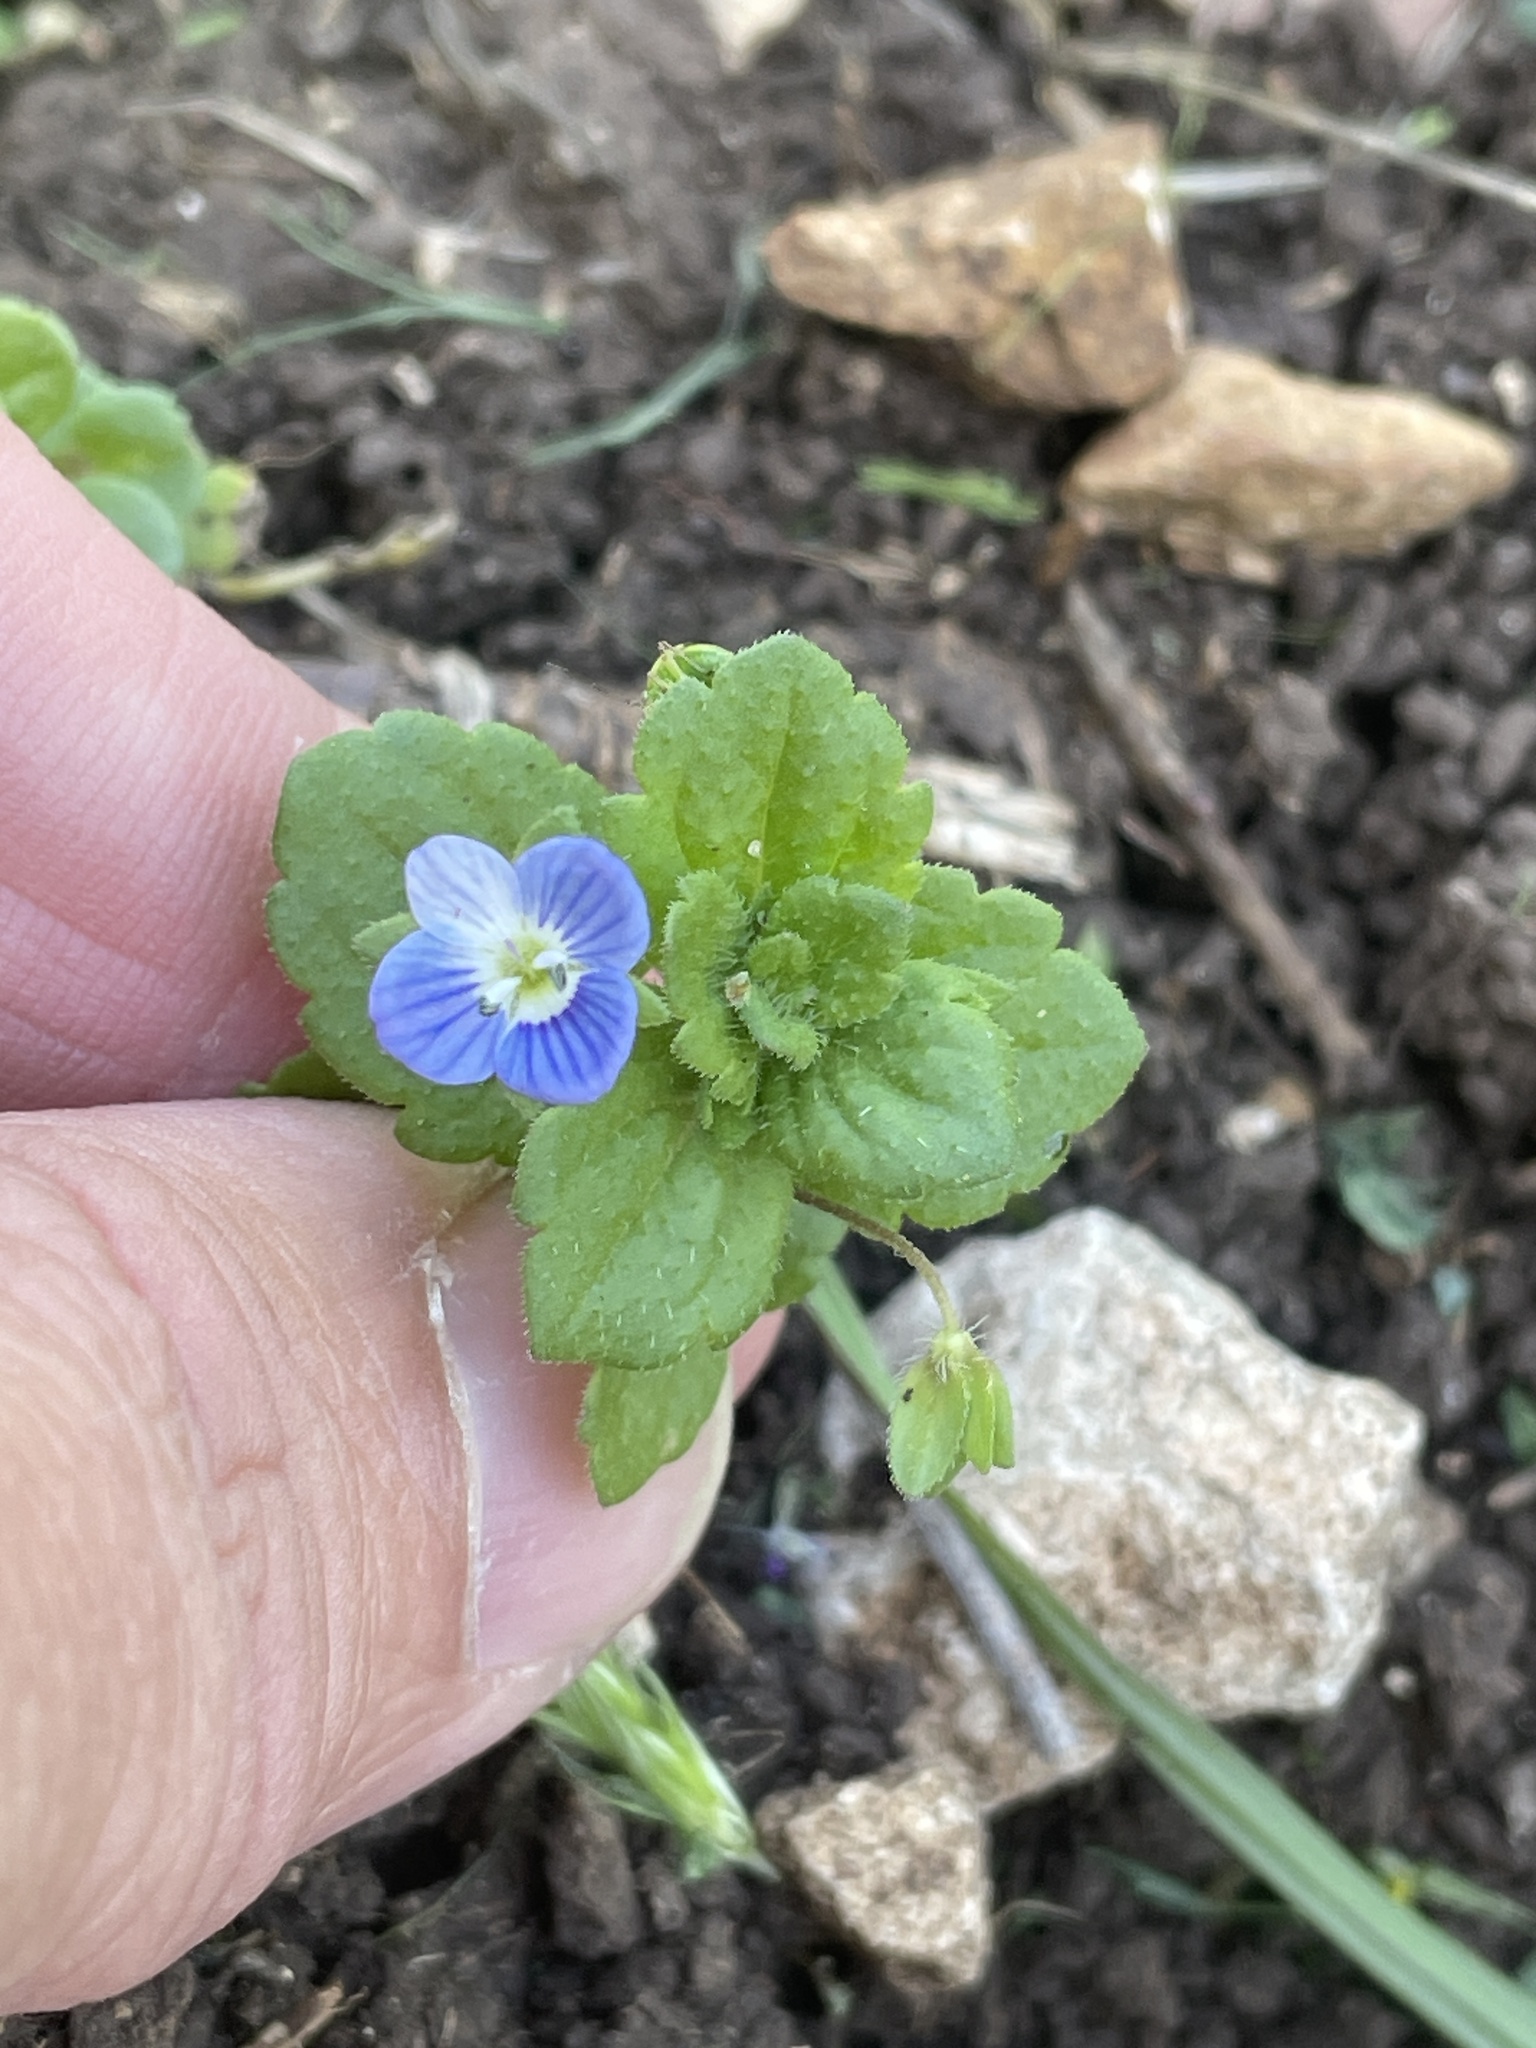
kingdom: Plantae
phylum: Tracheophyta
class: Magnoliopsida
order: Lamiales
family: Plantaginaceae
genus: Veronica
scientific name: Veronica persica
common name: Common field-speedwell
